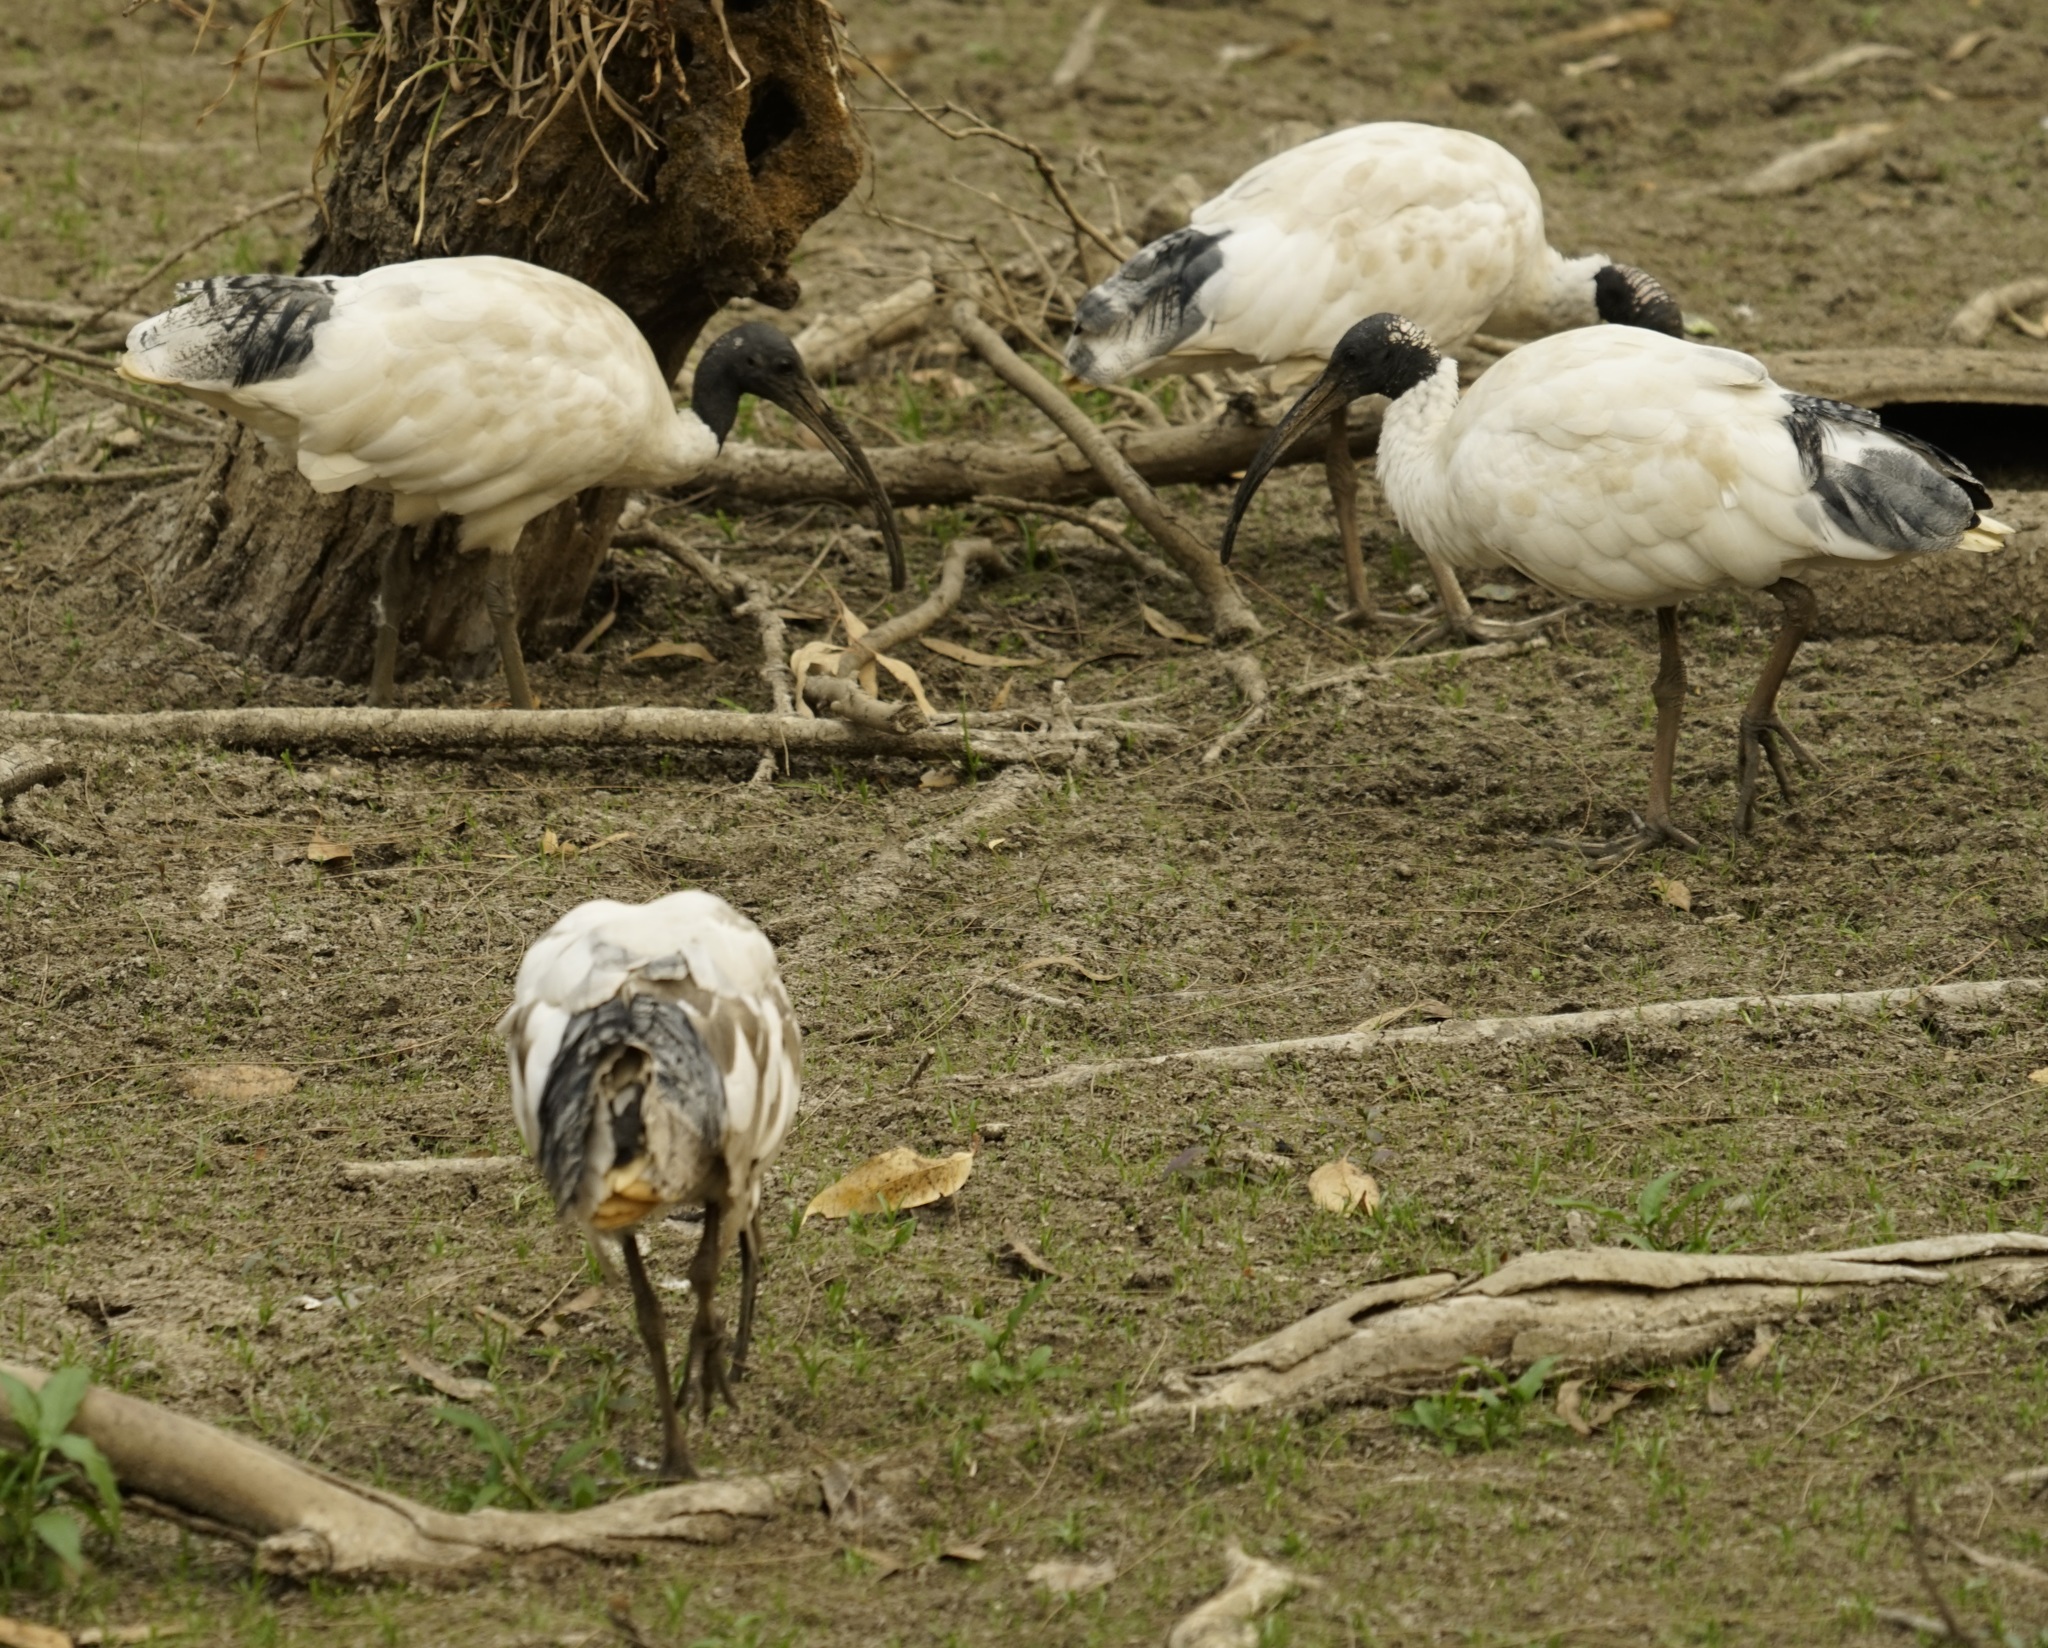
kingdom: Animalia
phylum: Chordata
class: Aves
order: Pelecaniformes
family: Threskiornithidae
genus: Threskiornis
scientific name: Threskiornis molucca
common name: Australian white ibis
